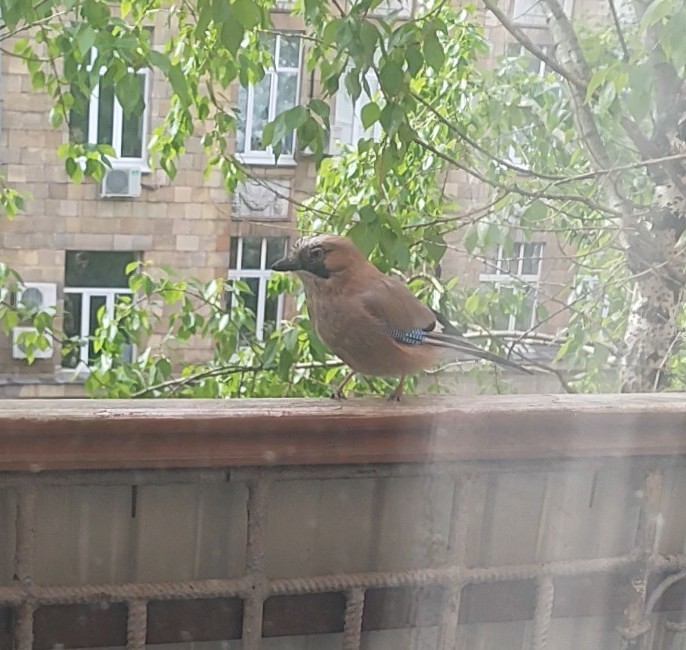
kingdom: Animalia
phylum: Chordata
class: Aves
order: Passeriformes
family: Corvidae
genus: Garrulus
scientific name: Garrulus glandarius
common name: Eurasian jay
